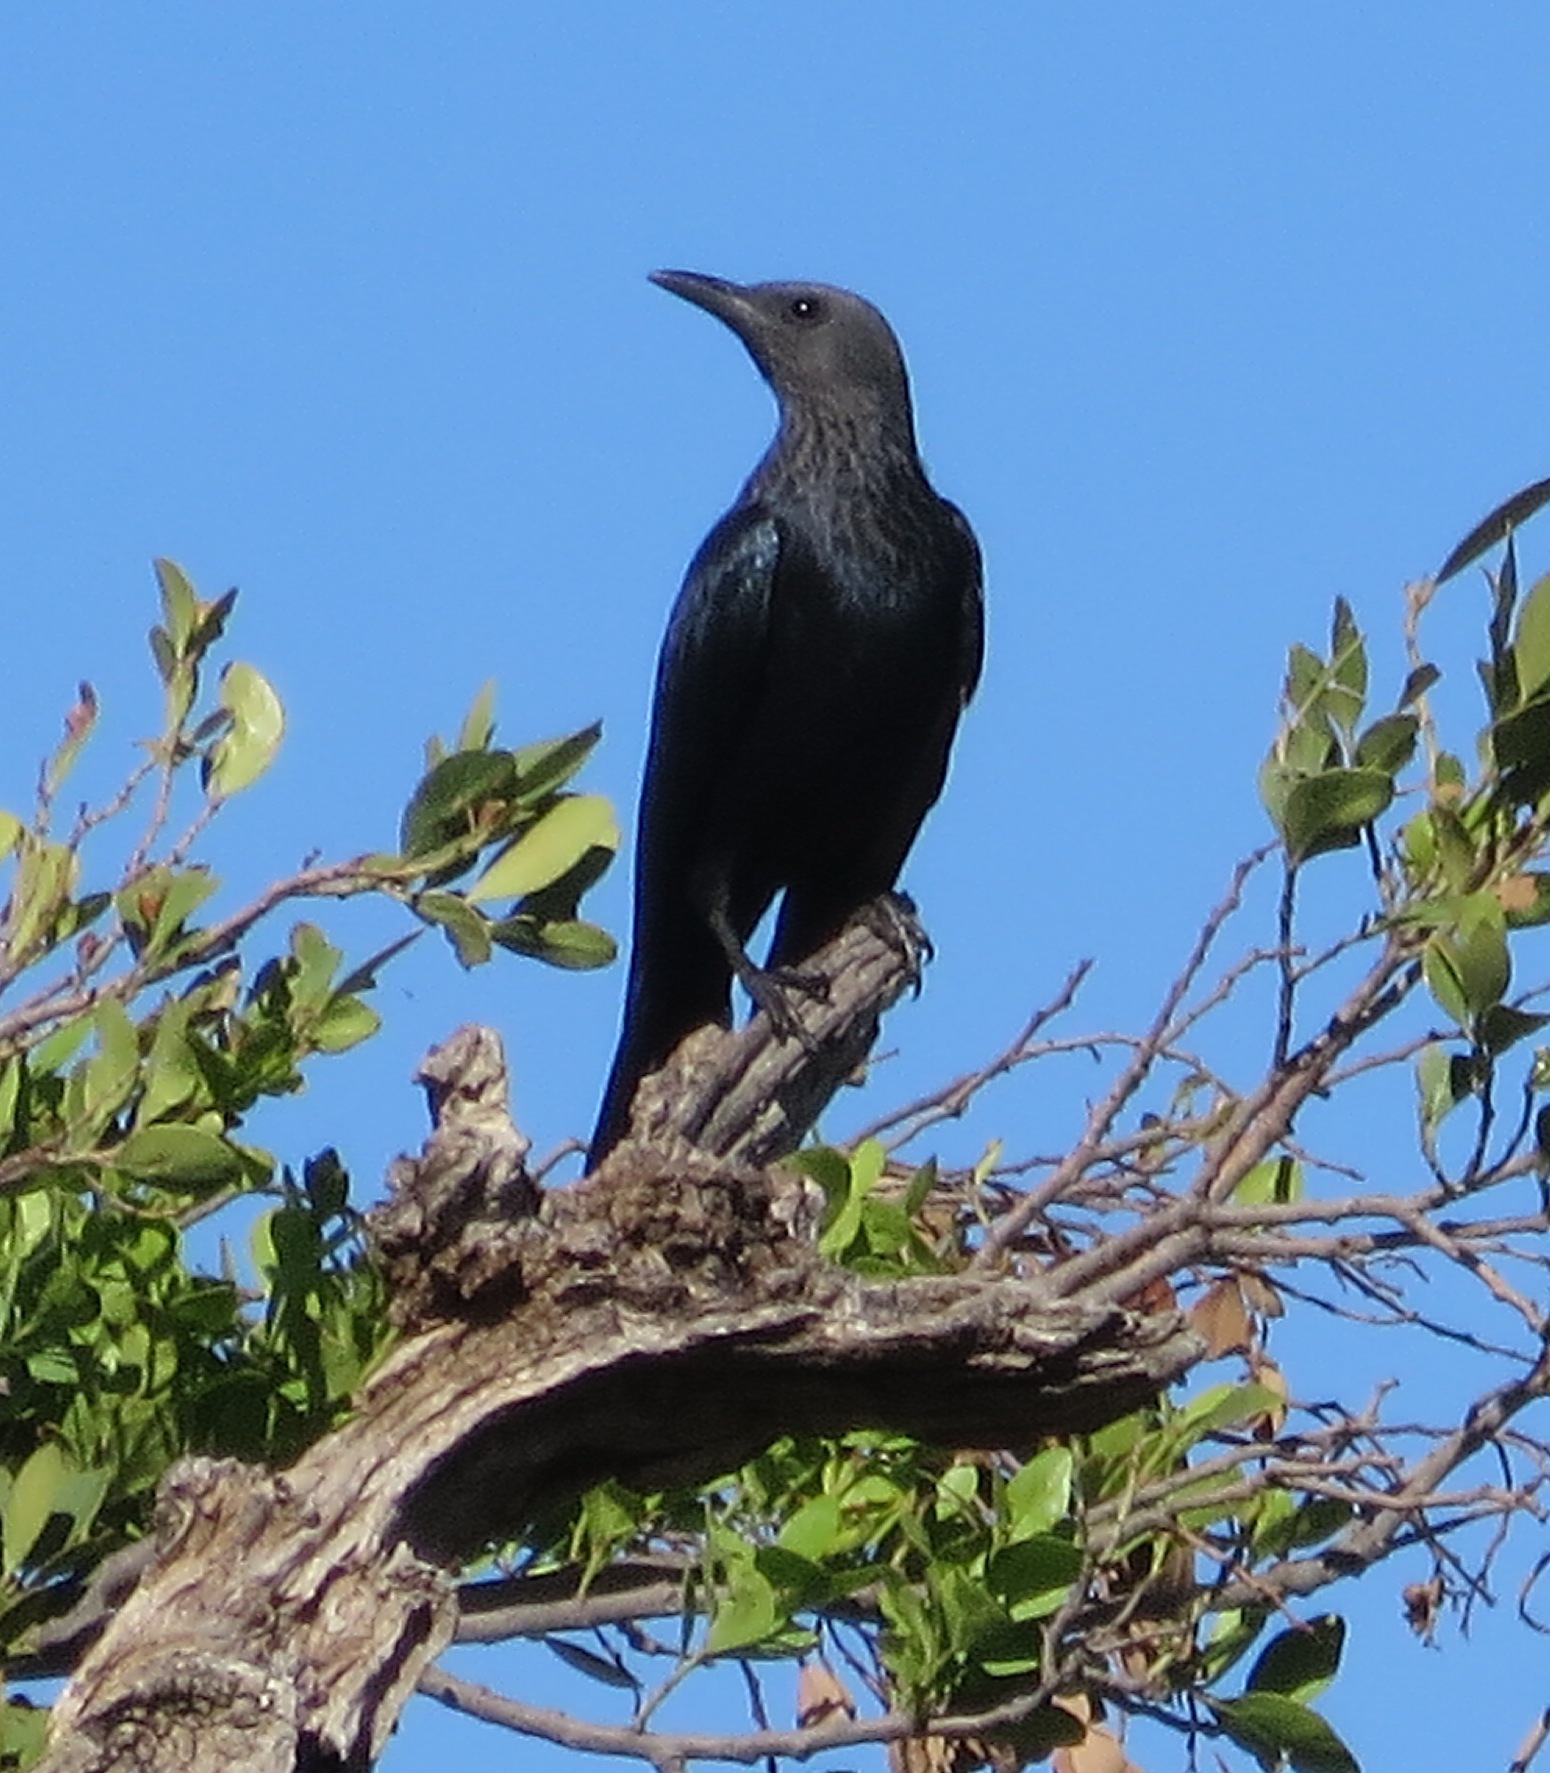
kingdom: Animalia
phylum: Chordata
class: Aves
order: Passeriformes
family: Sturnidae
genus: Onychognathus
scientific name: Onychognathus morio
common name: Red-winged starling
